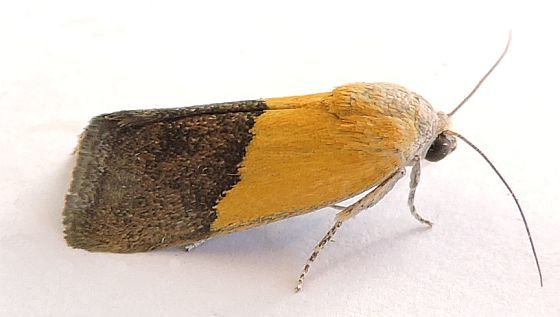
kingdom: Animalia
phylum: Arthropoda
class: Insecta
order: Lepidoptera
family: Noctuidae
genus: Acontia
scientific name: Acontia semiflava
